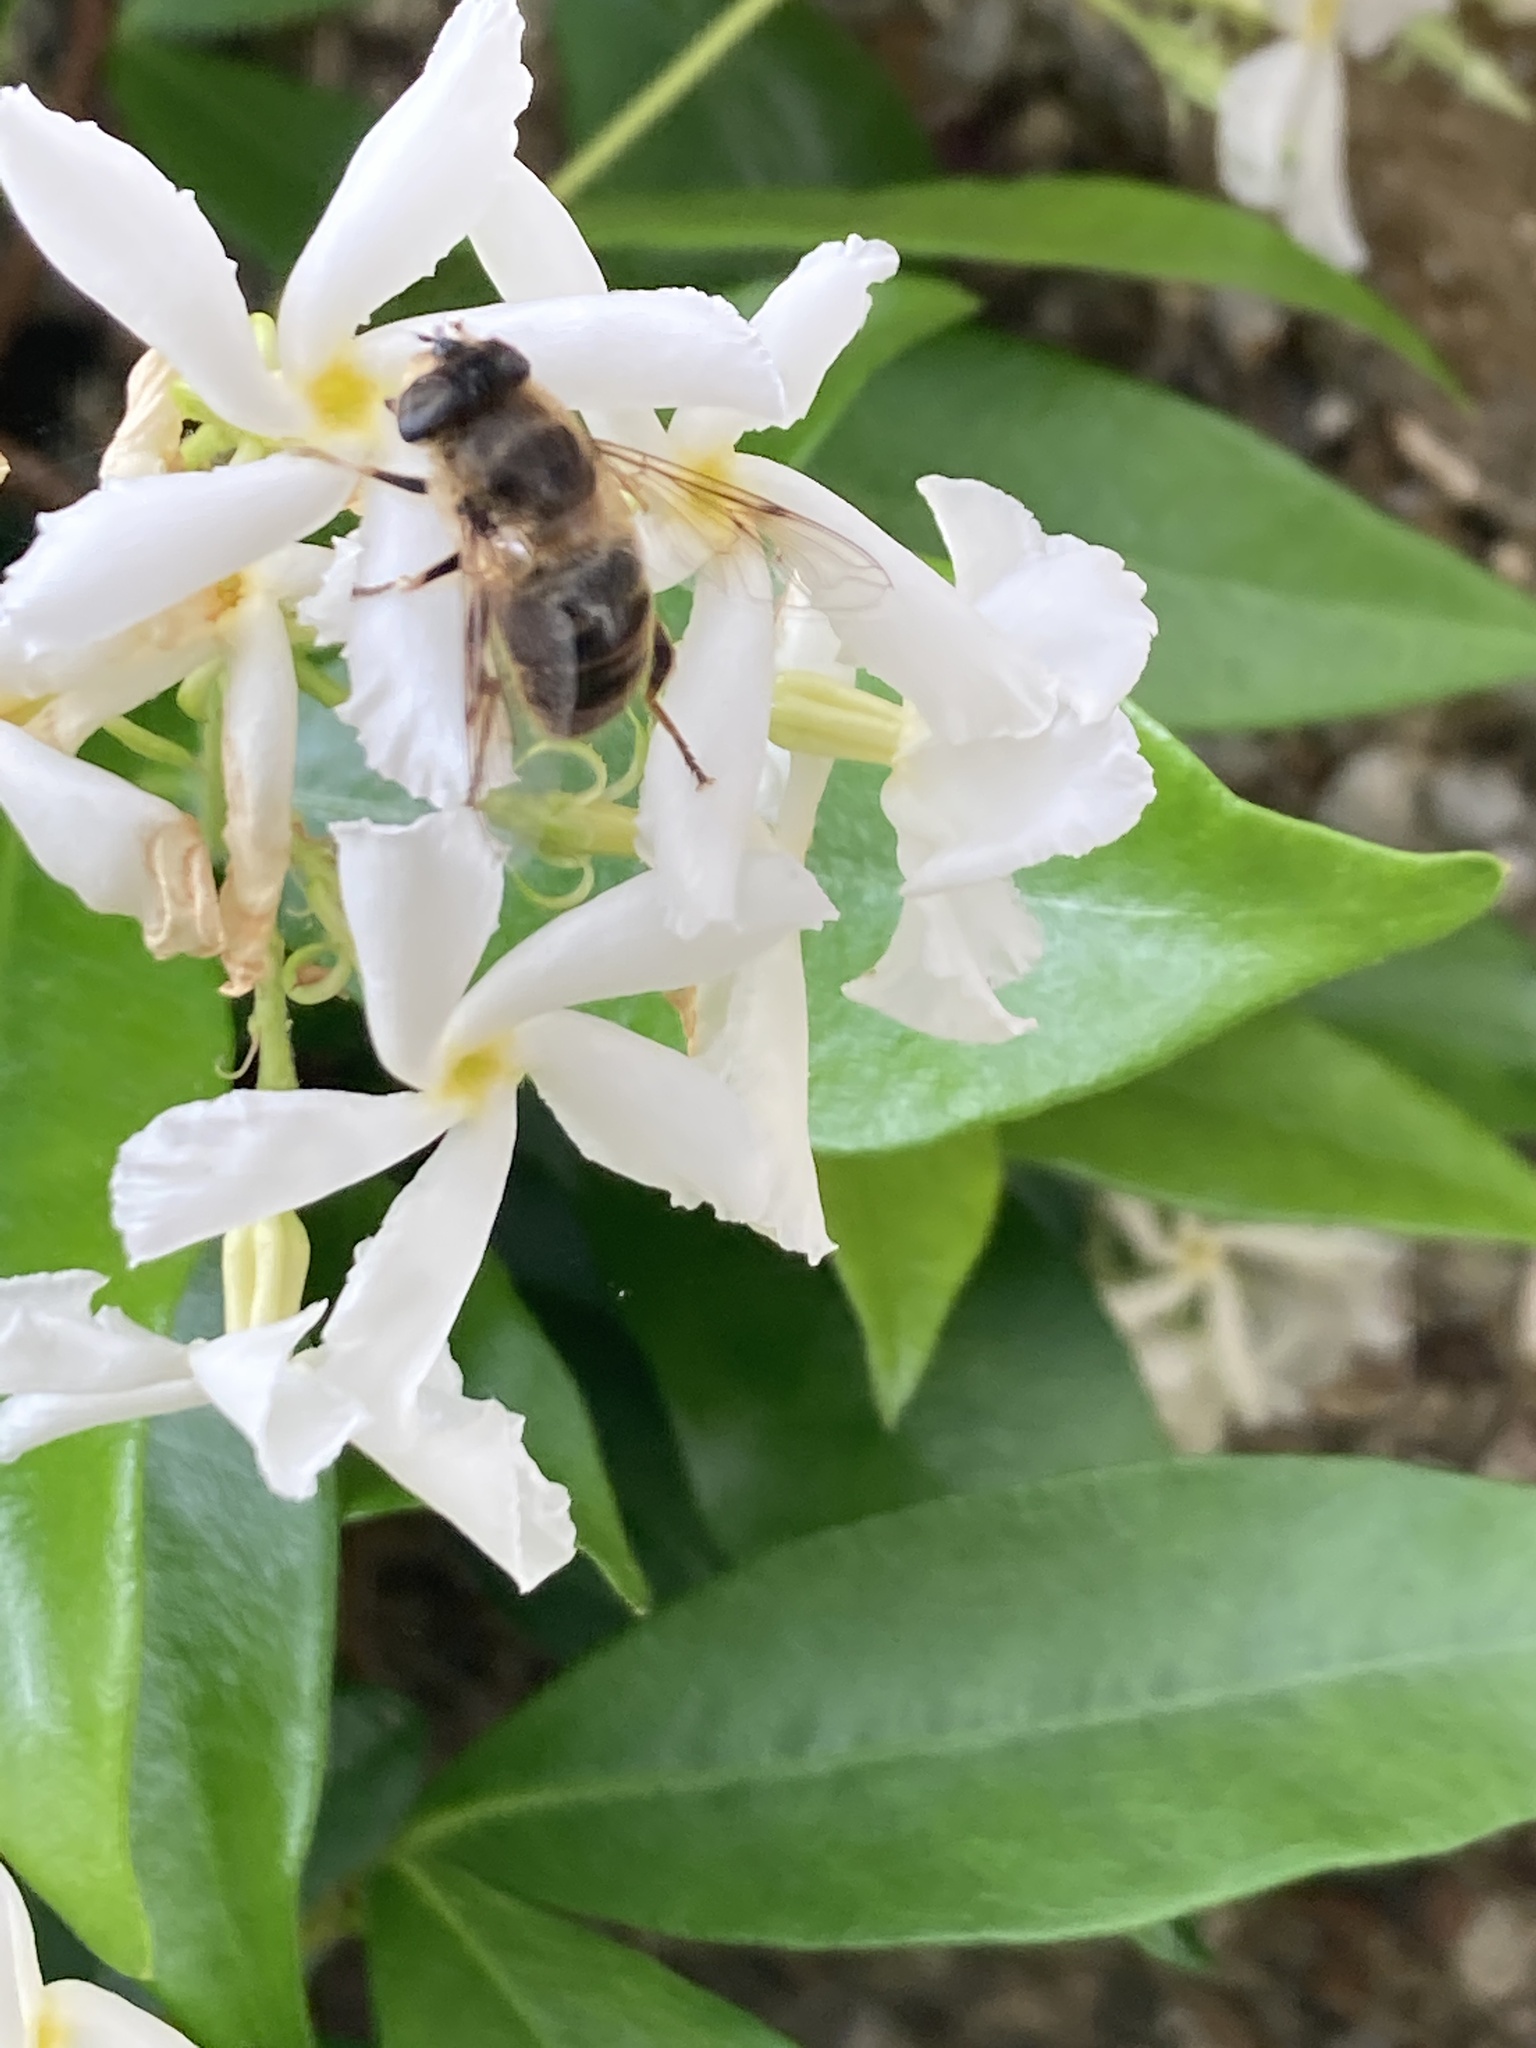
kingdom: Animalia
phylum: Arthropoda
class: Insecta
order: Diptera
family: Syrphidae
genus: Eristalis
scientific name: Eristalis tenax
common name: Drone fly
